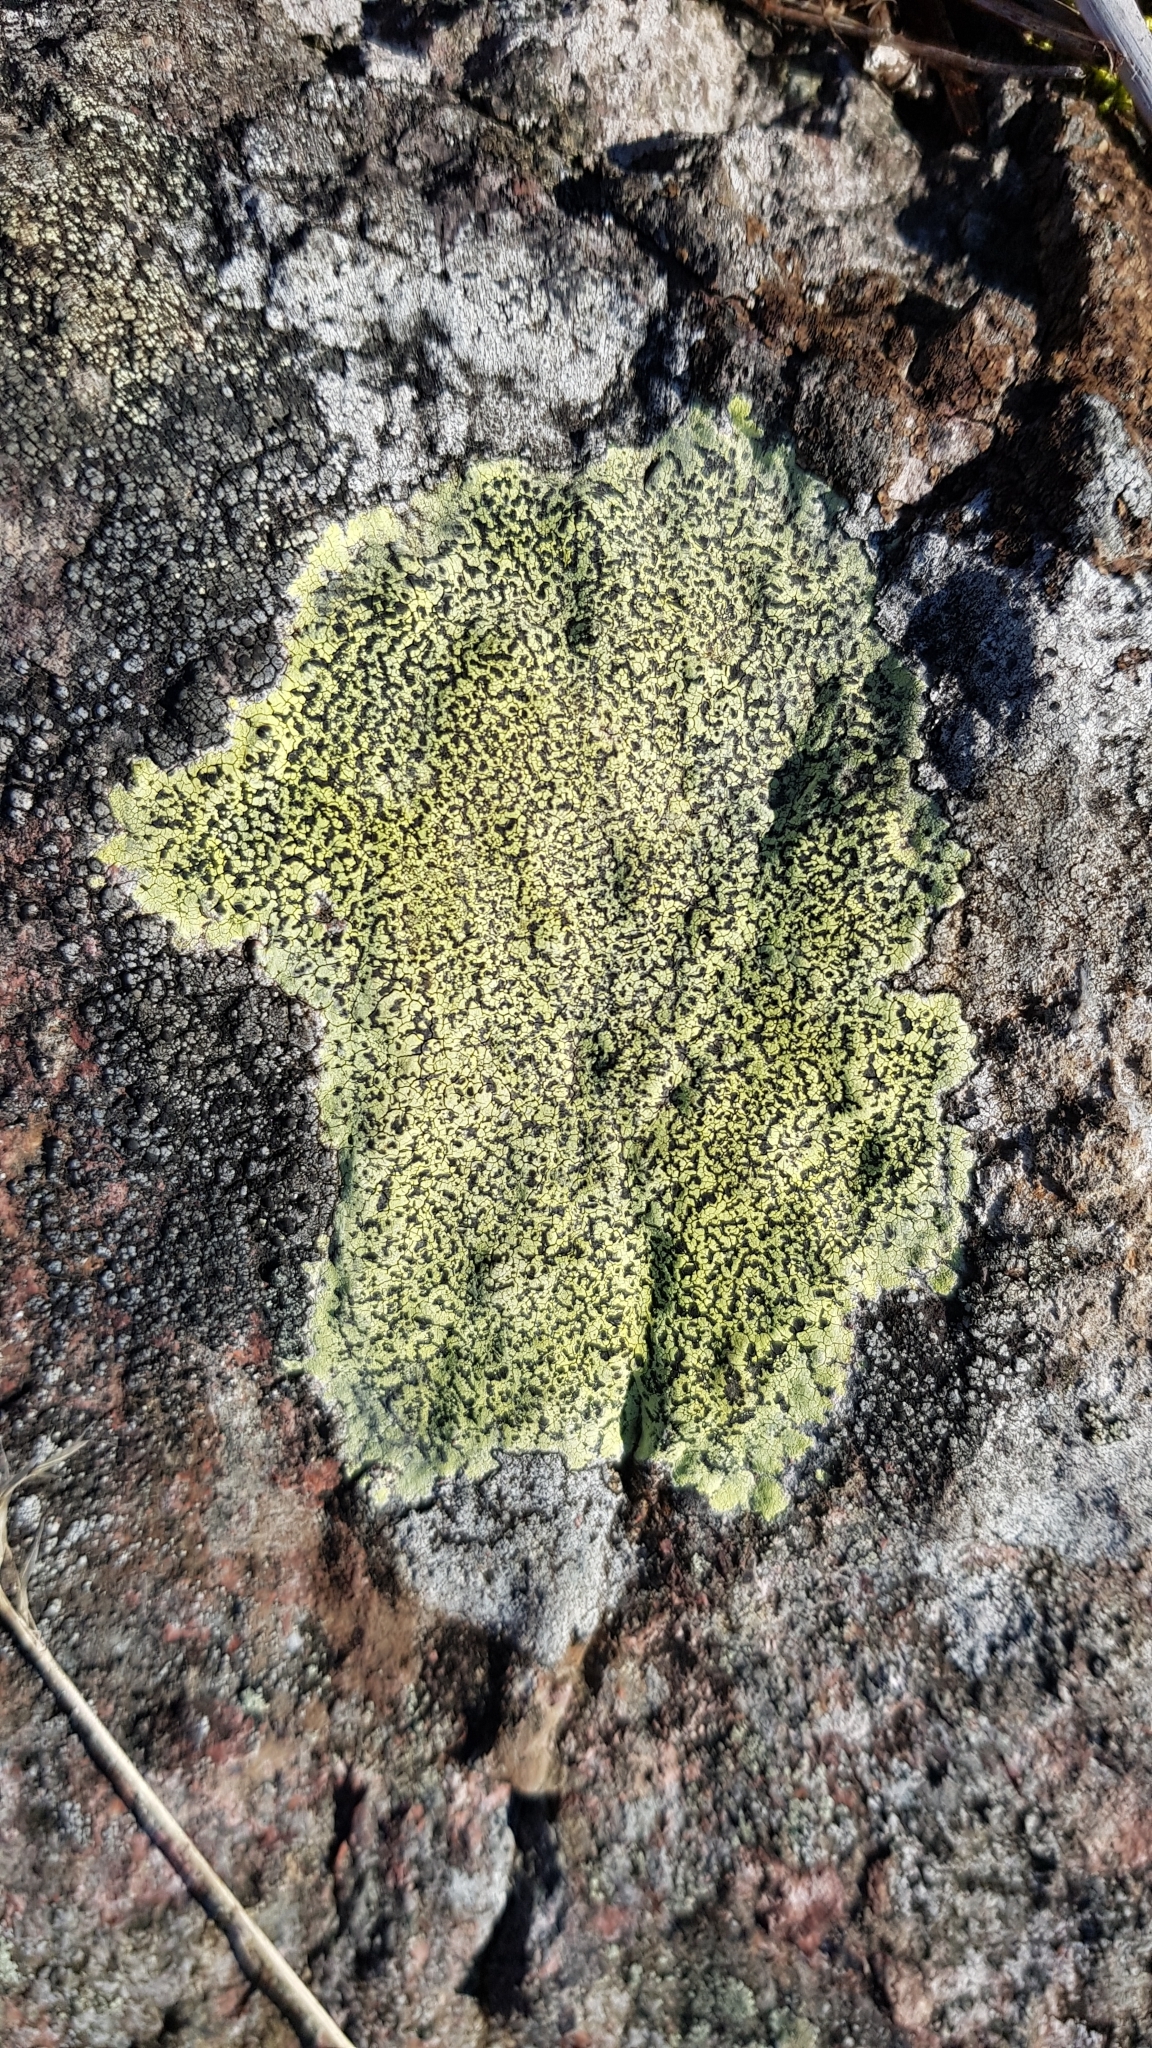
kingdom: Fungi
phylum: Ascomycota
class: Lecanoromycetes
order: Rhizocarpales
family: Rhizocarpaceae
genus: Rhizocarpon
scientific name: Rhizocarpon geographicum
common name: Yellow map lichen
